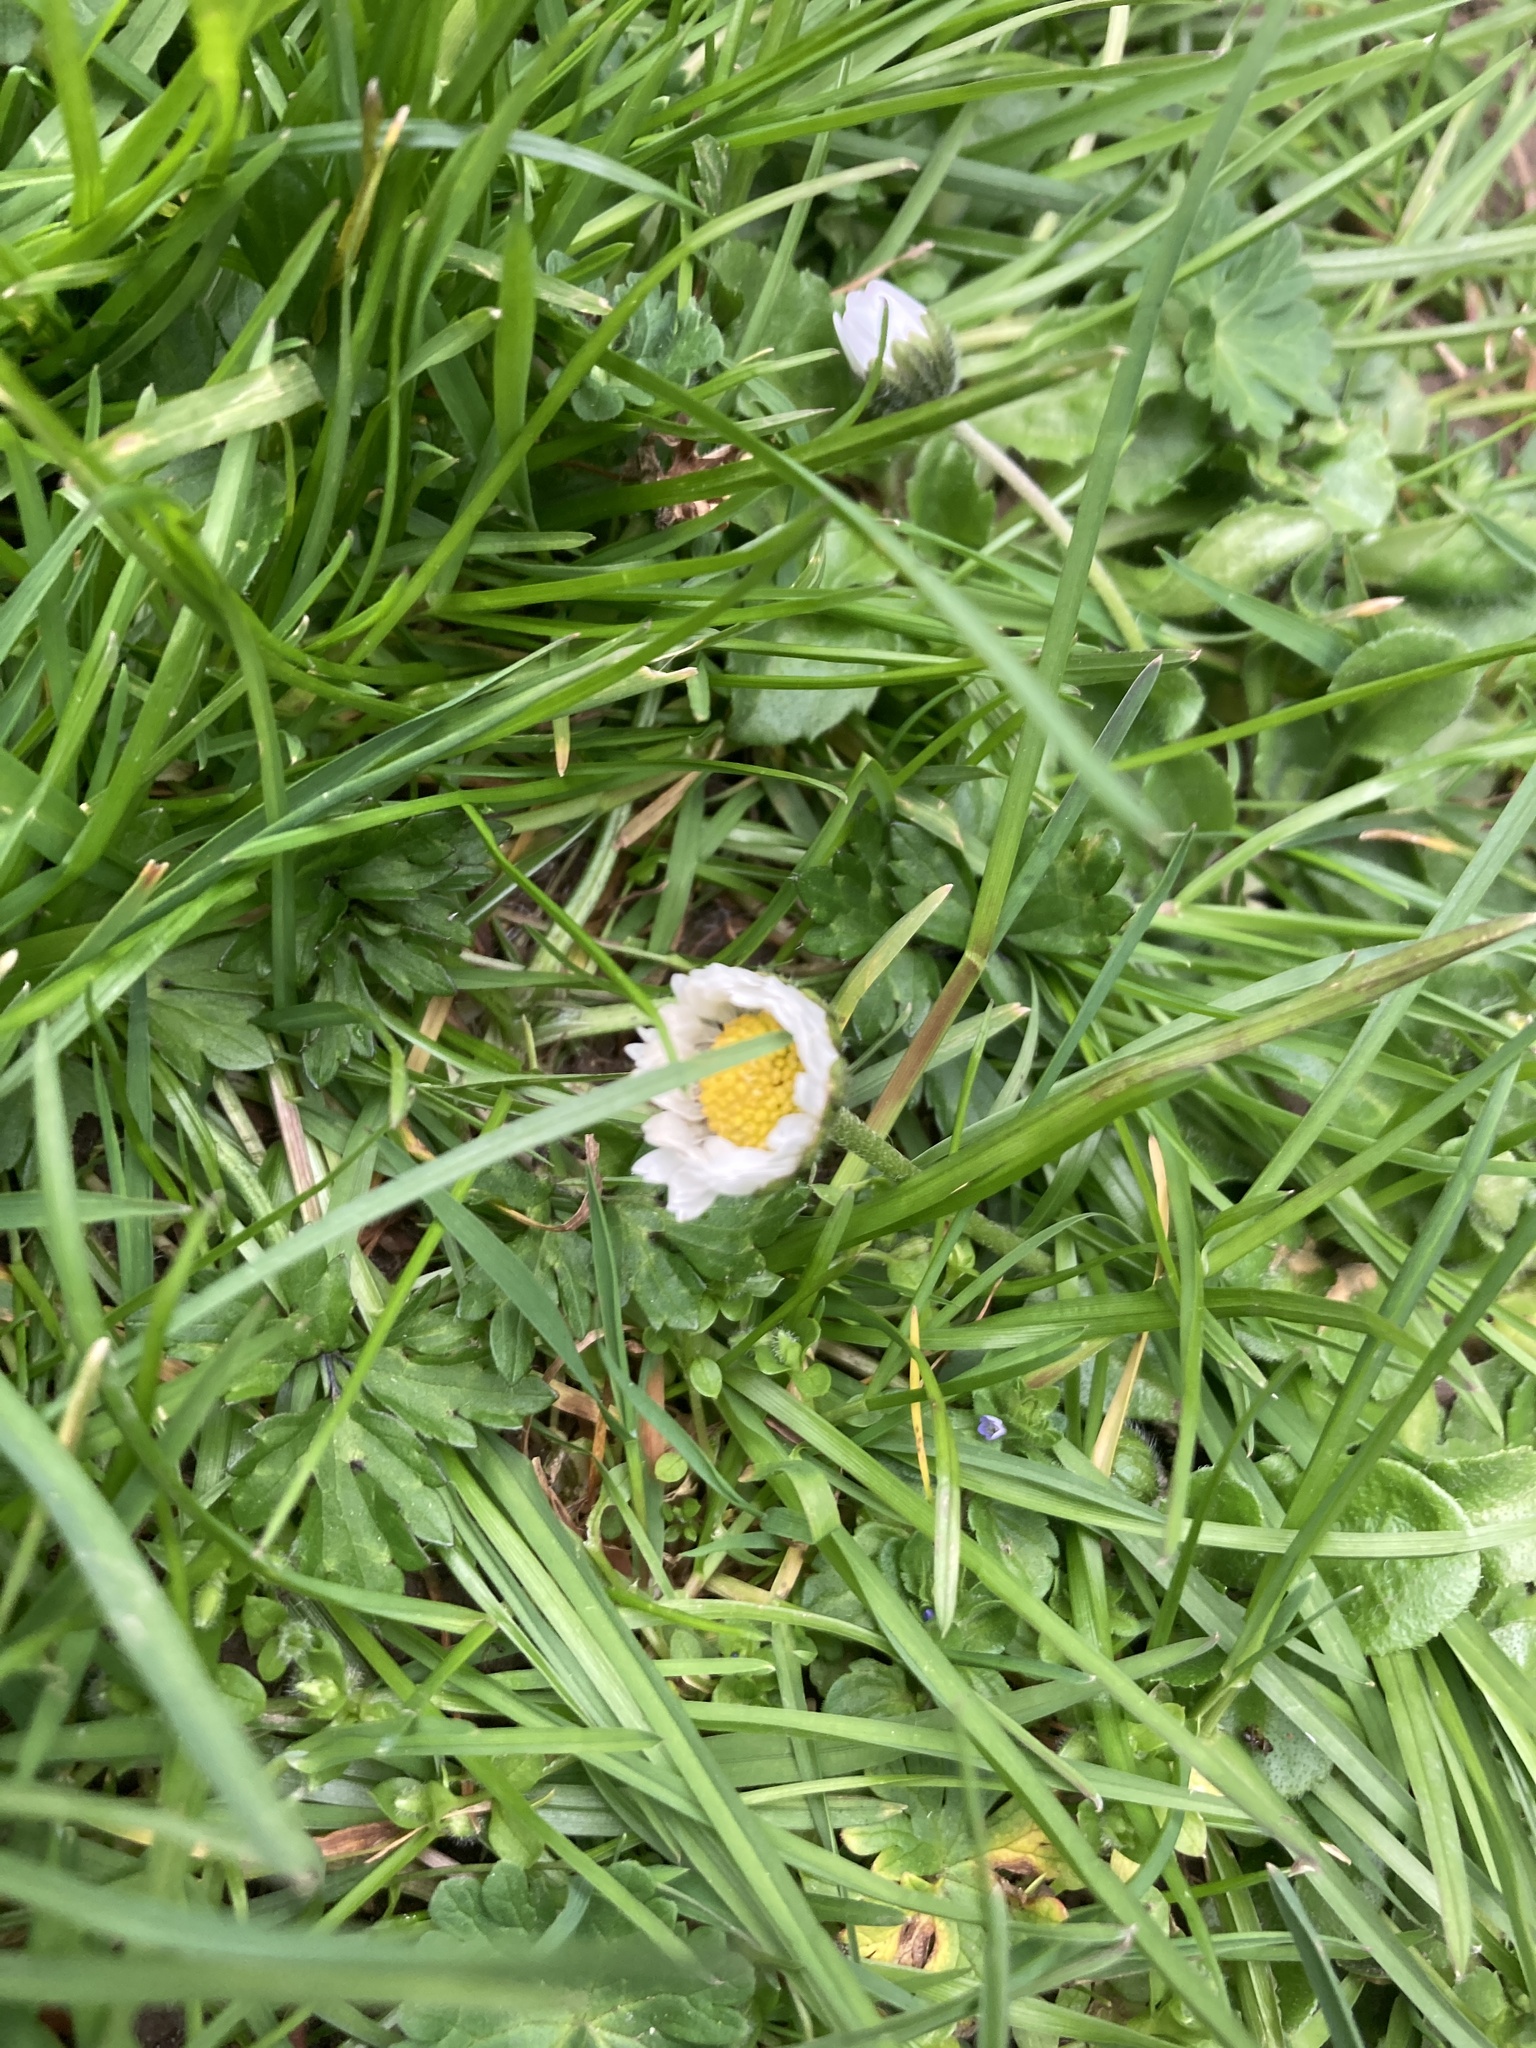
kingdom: Plantae
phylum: Tracheophyta
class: Magnoliopsida
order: Asterales
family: Asteraceae
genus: Bellis
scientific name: Bellis perennis
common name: Lawndaisy
